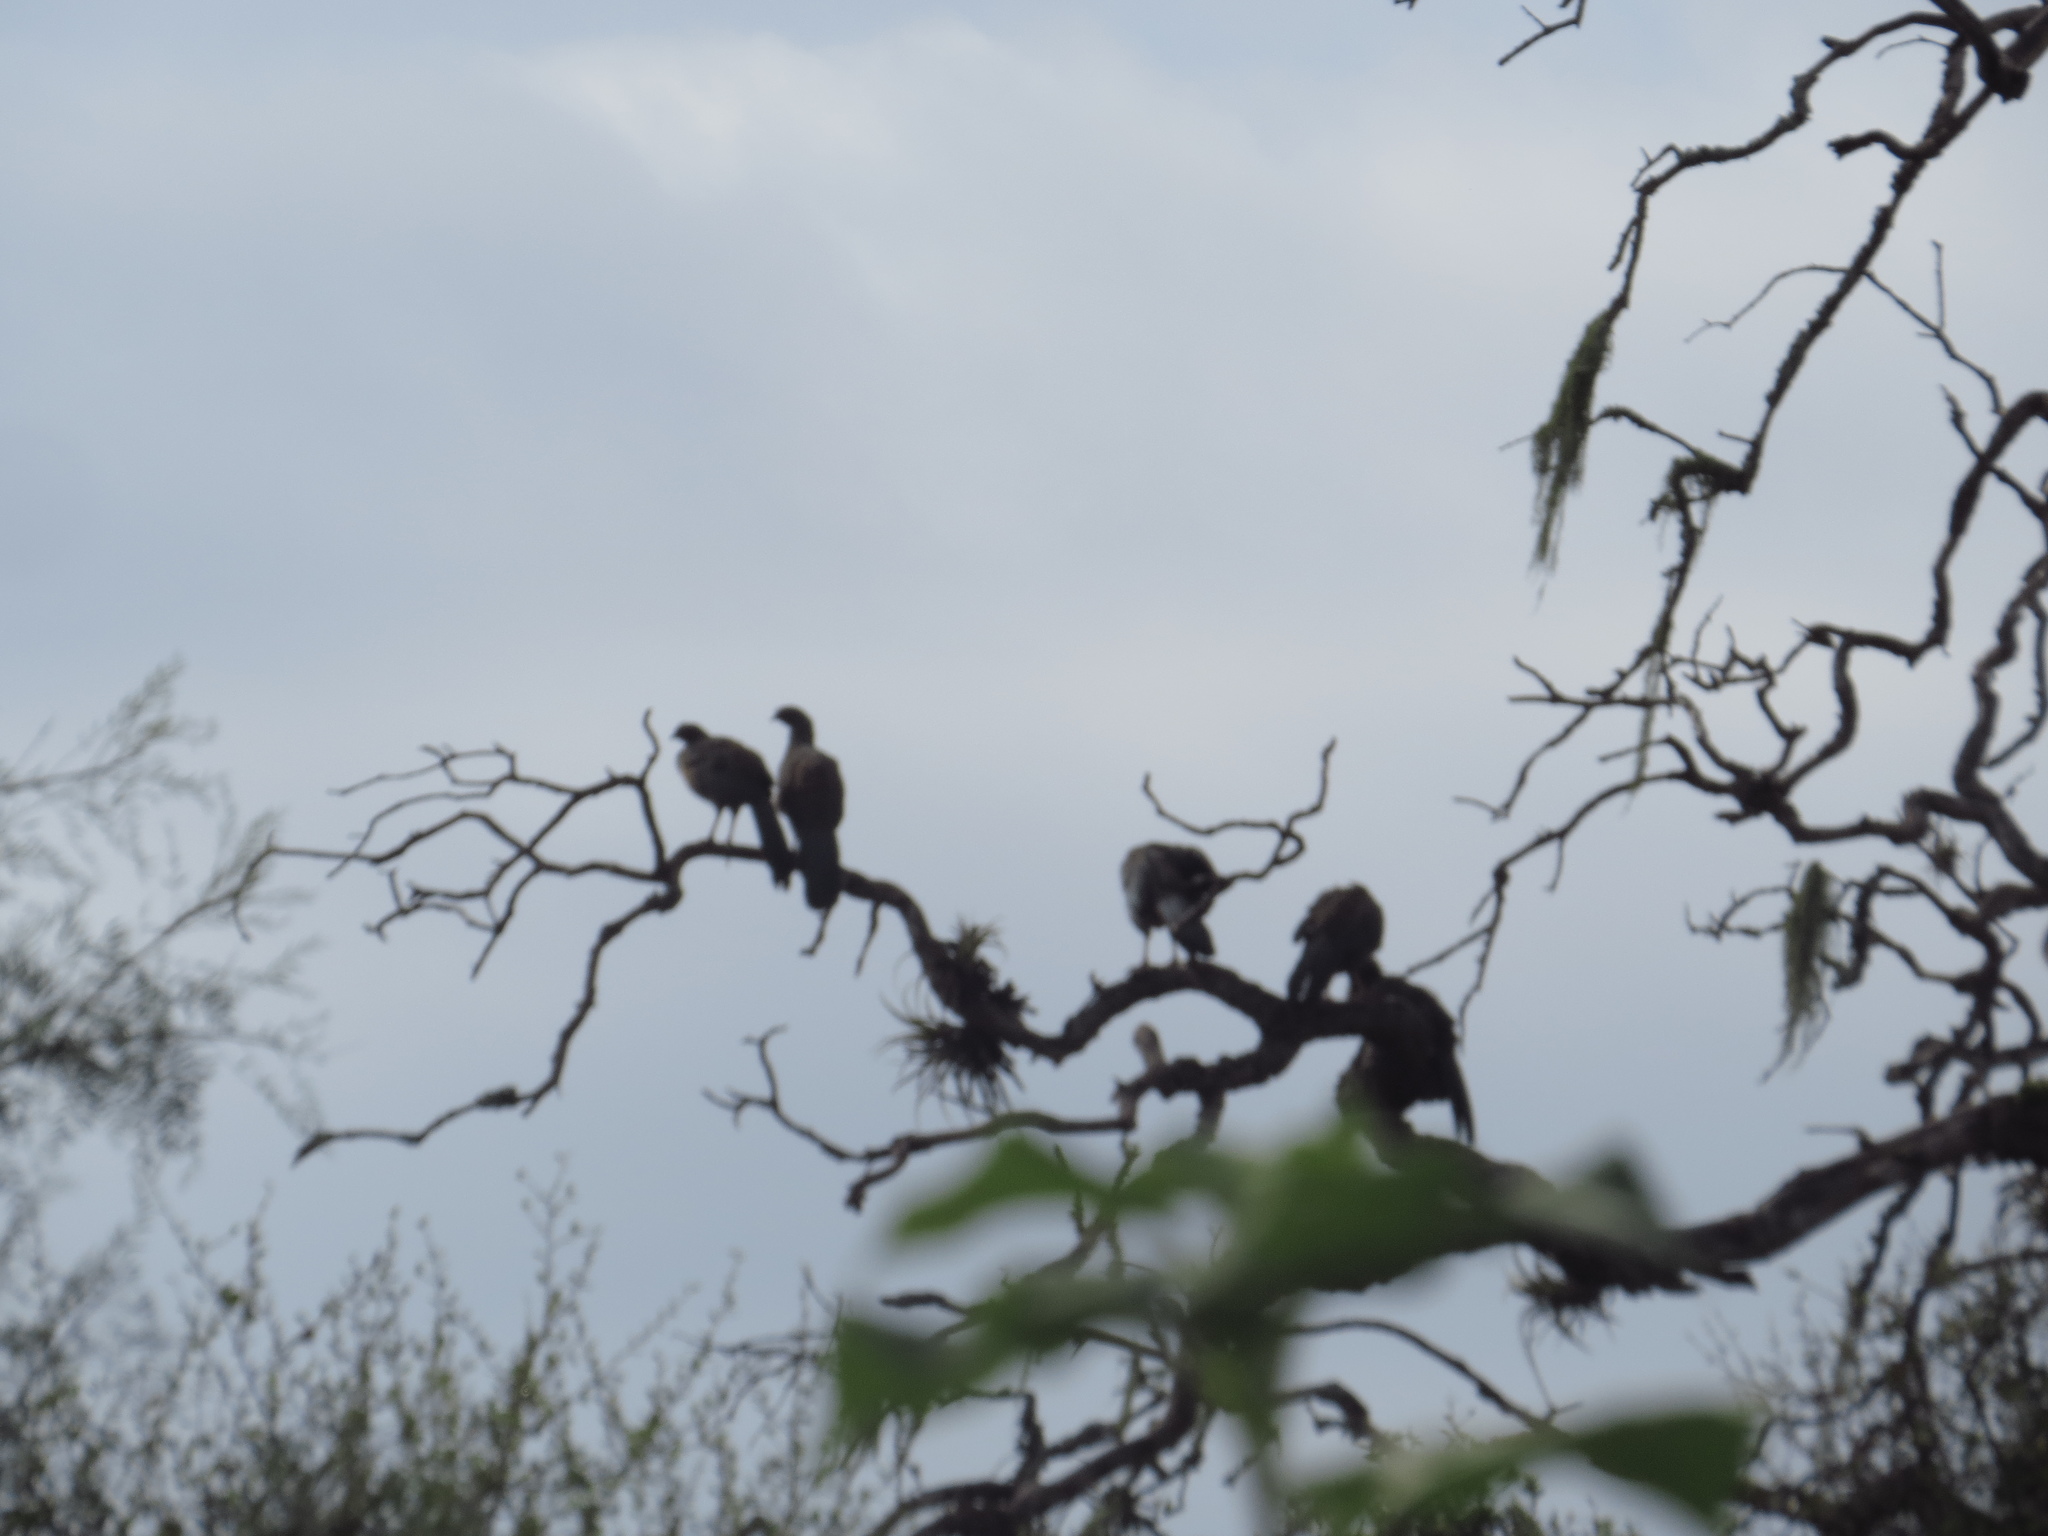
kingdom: Animalia
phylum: Chordata
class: Aves
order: Galliformes
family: Cracidae
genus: Ortalis
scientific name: Ortalis canicollis
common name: Chaco chachalaca
